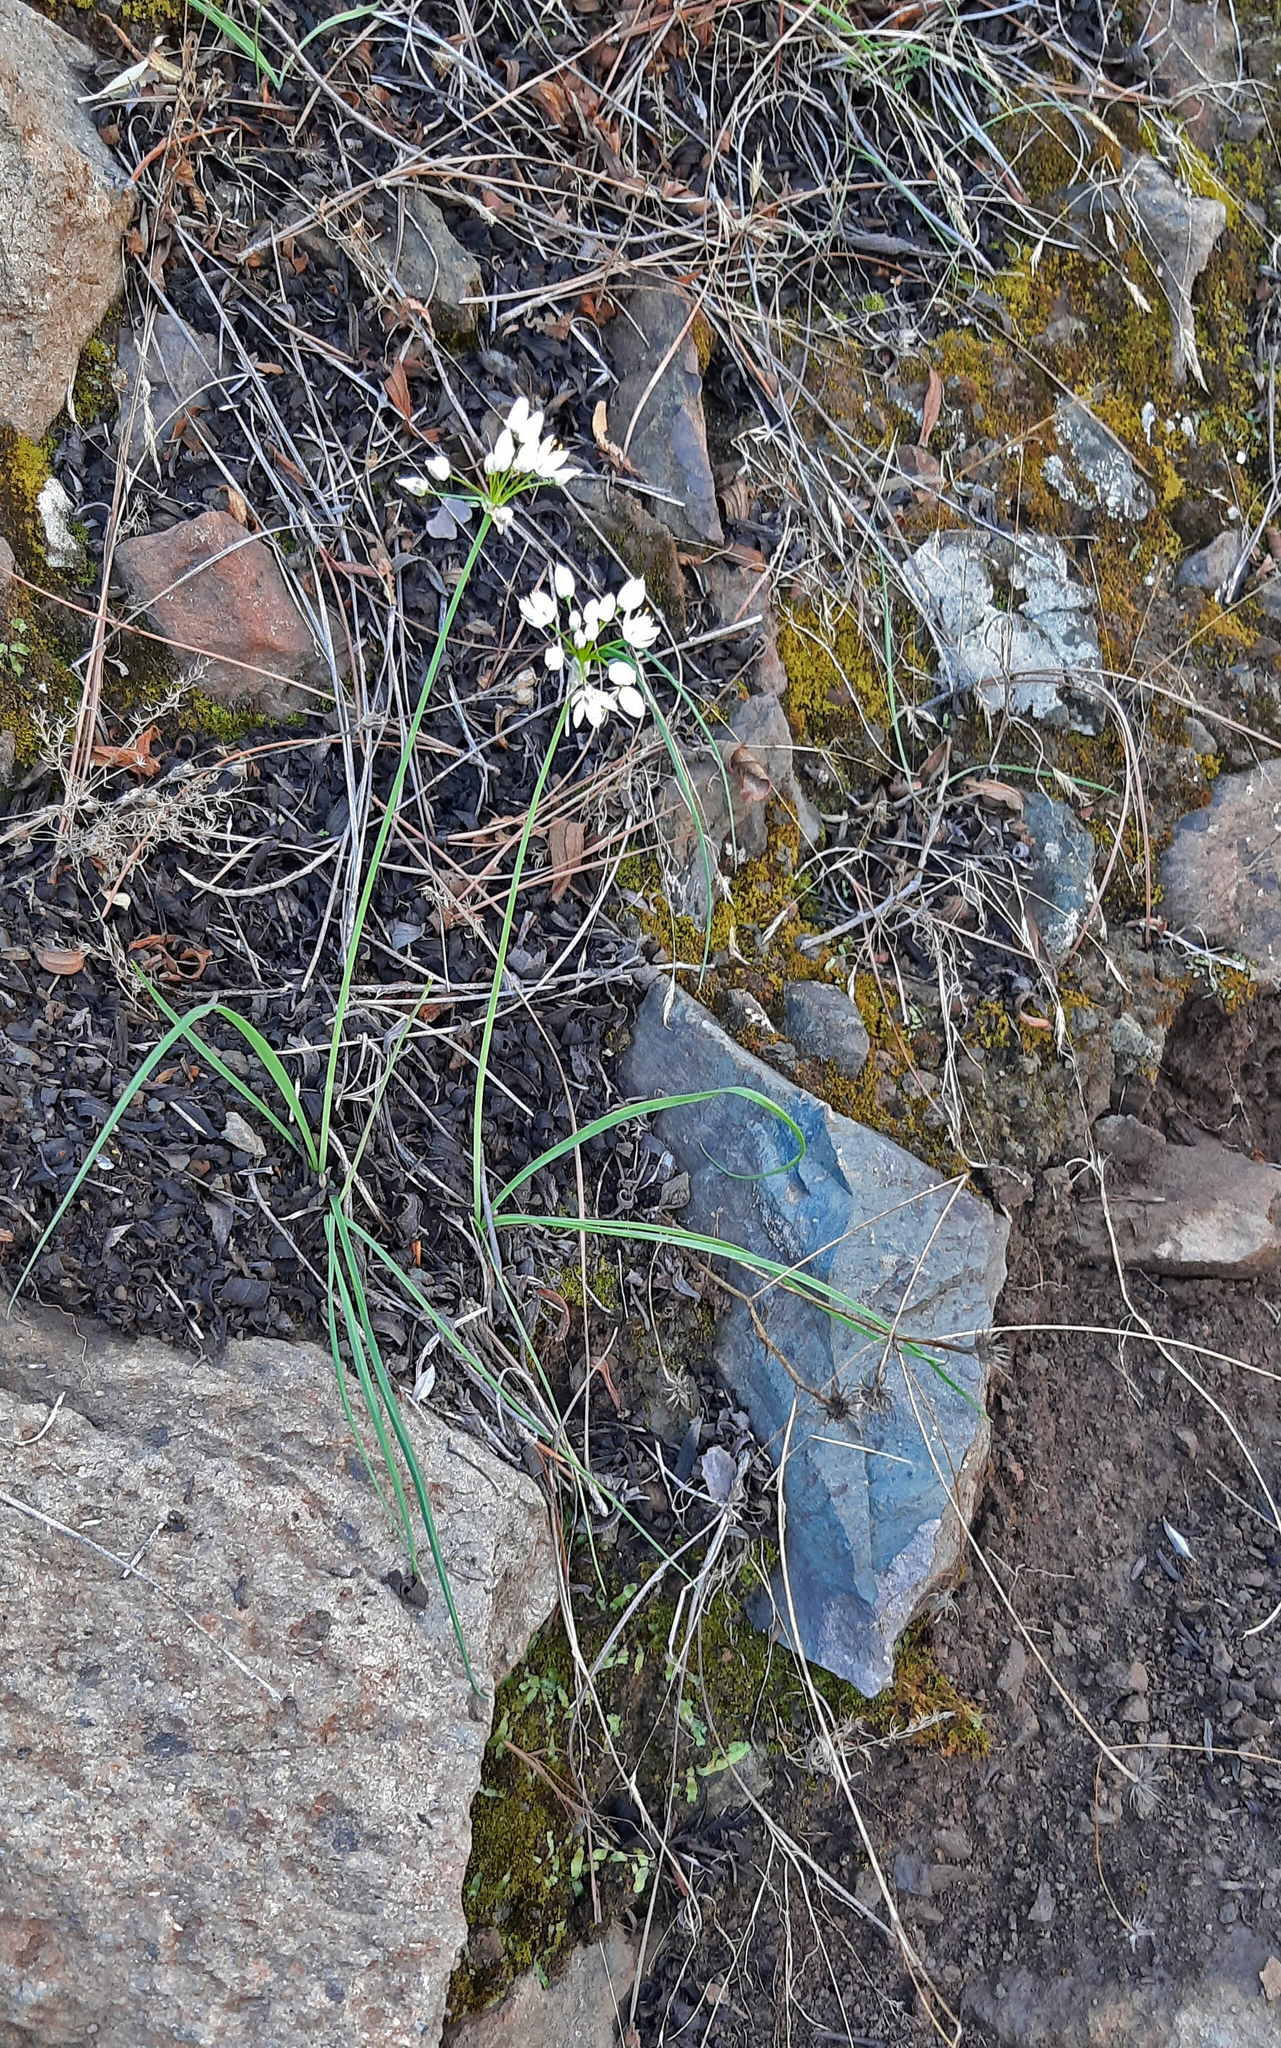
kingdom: Plantae
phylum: Tracheophyta
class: Liliopsida
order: Asparagales
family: Amaryllidaceae
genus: Allium
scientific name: Allium canariense
